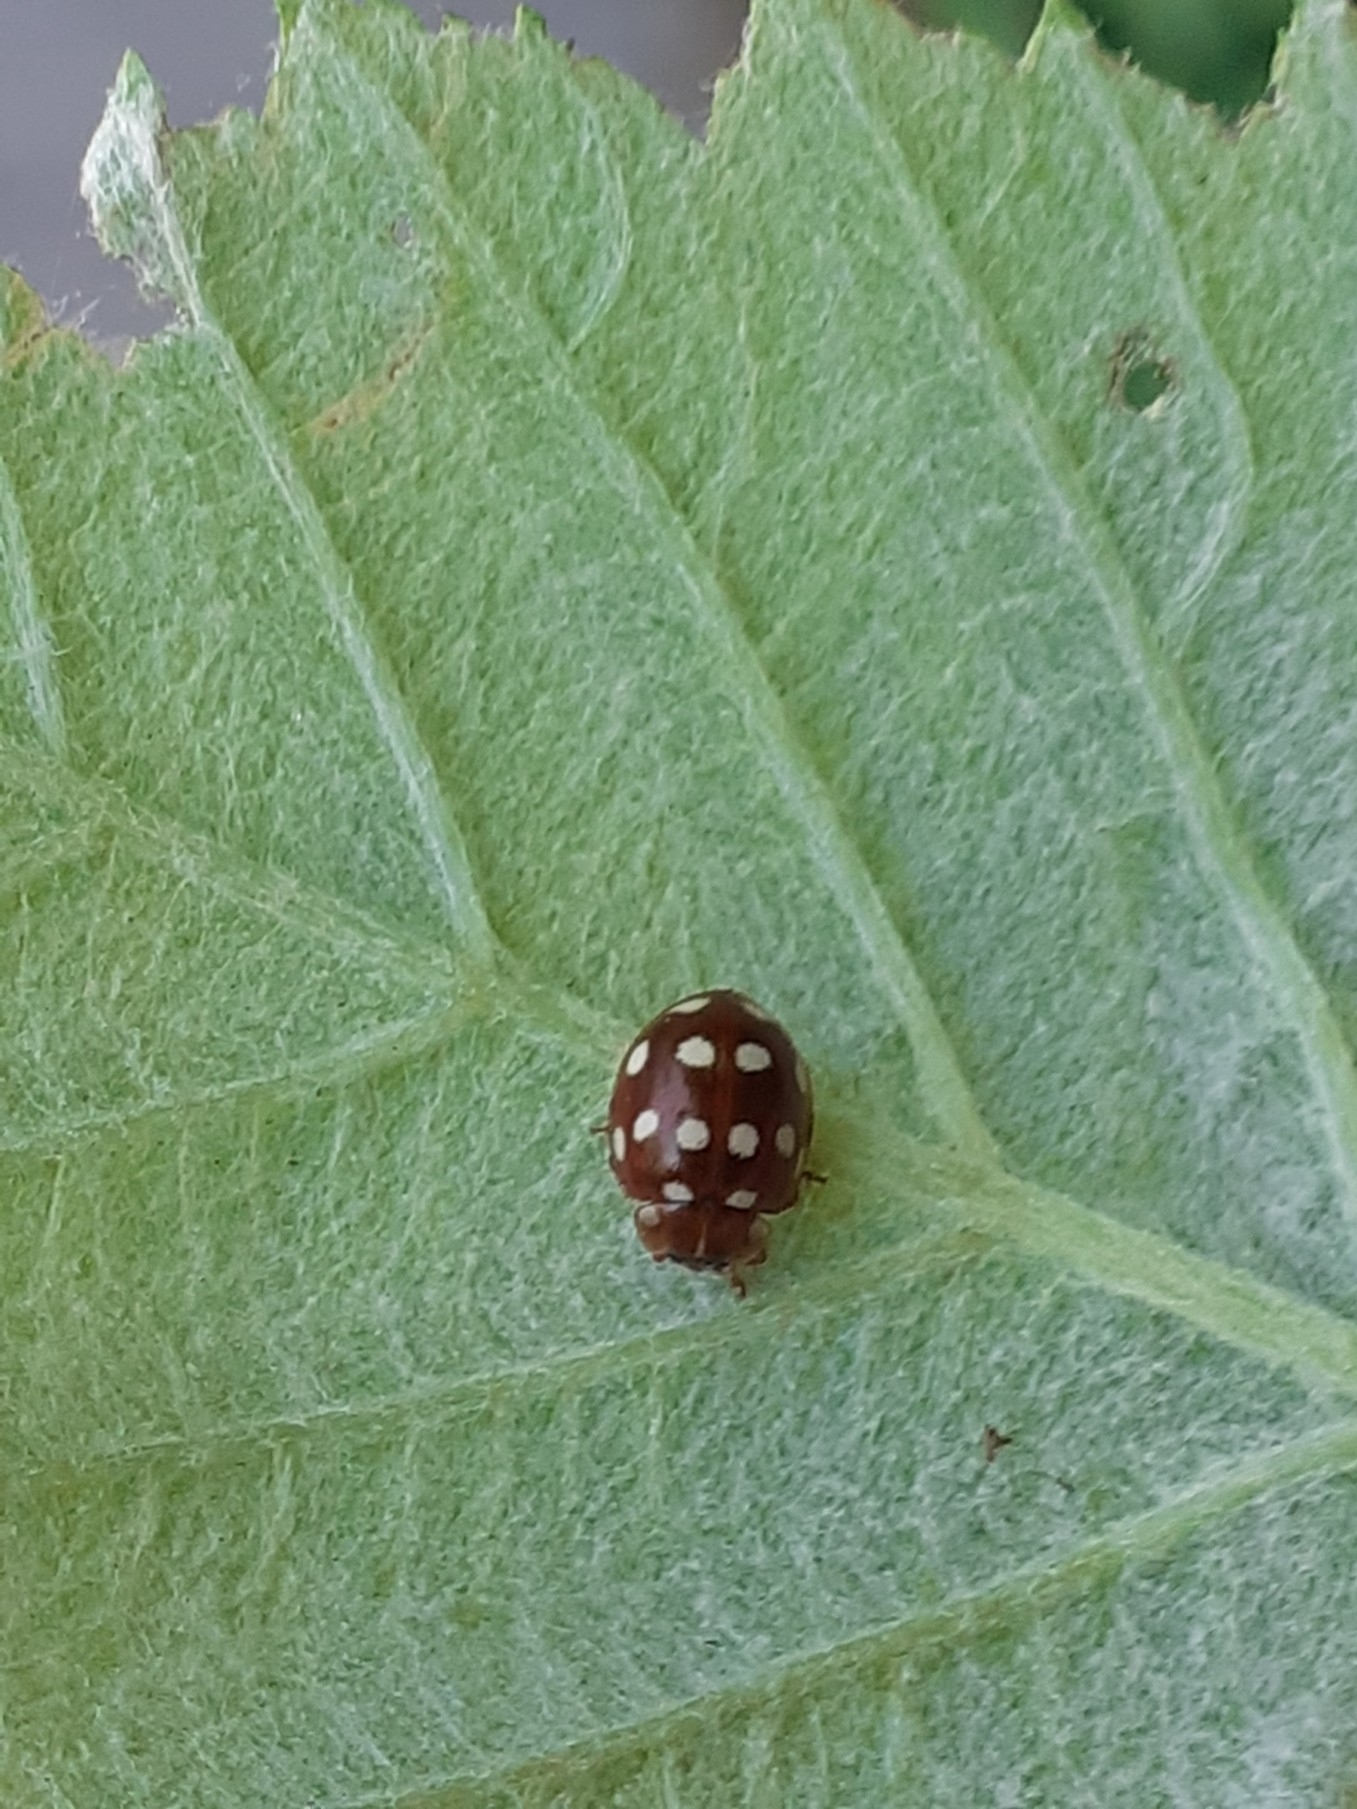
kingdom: Animalia
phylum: Arthropoda
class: Insecta
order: Coleoptera
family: Coccinellidae
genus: Calvia
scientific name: Calvia quatuordecimguttata
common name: Cream-spot ladybird
